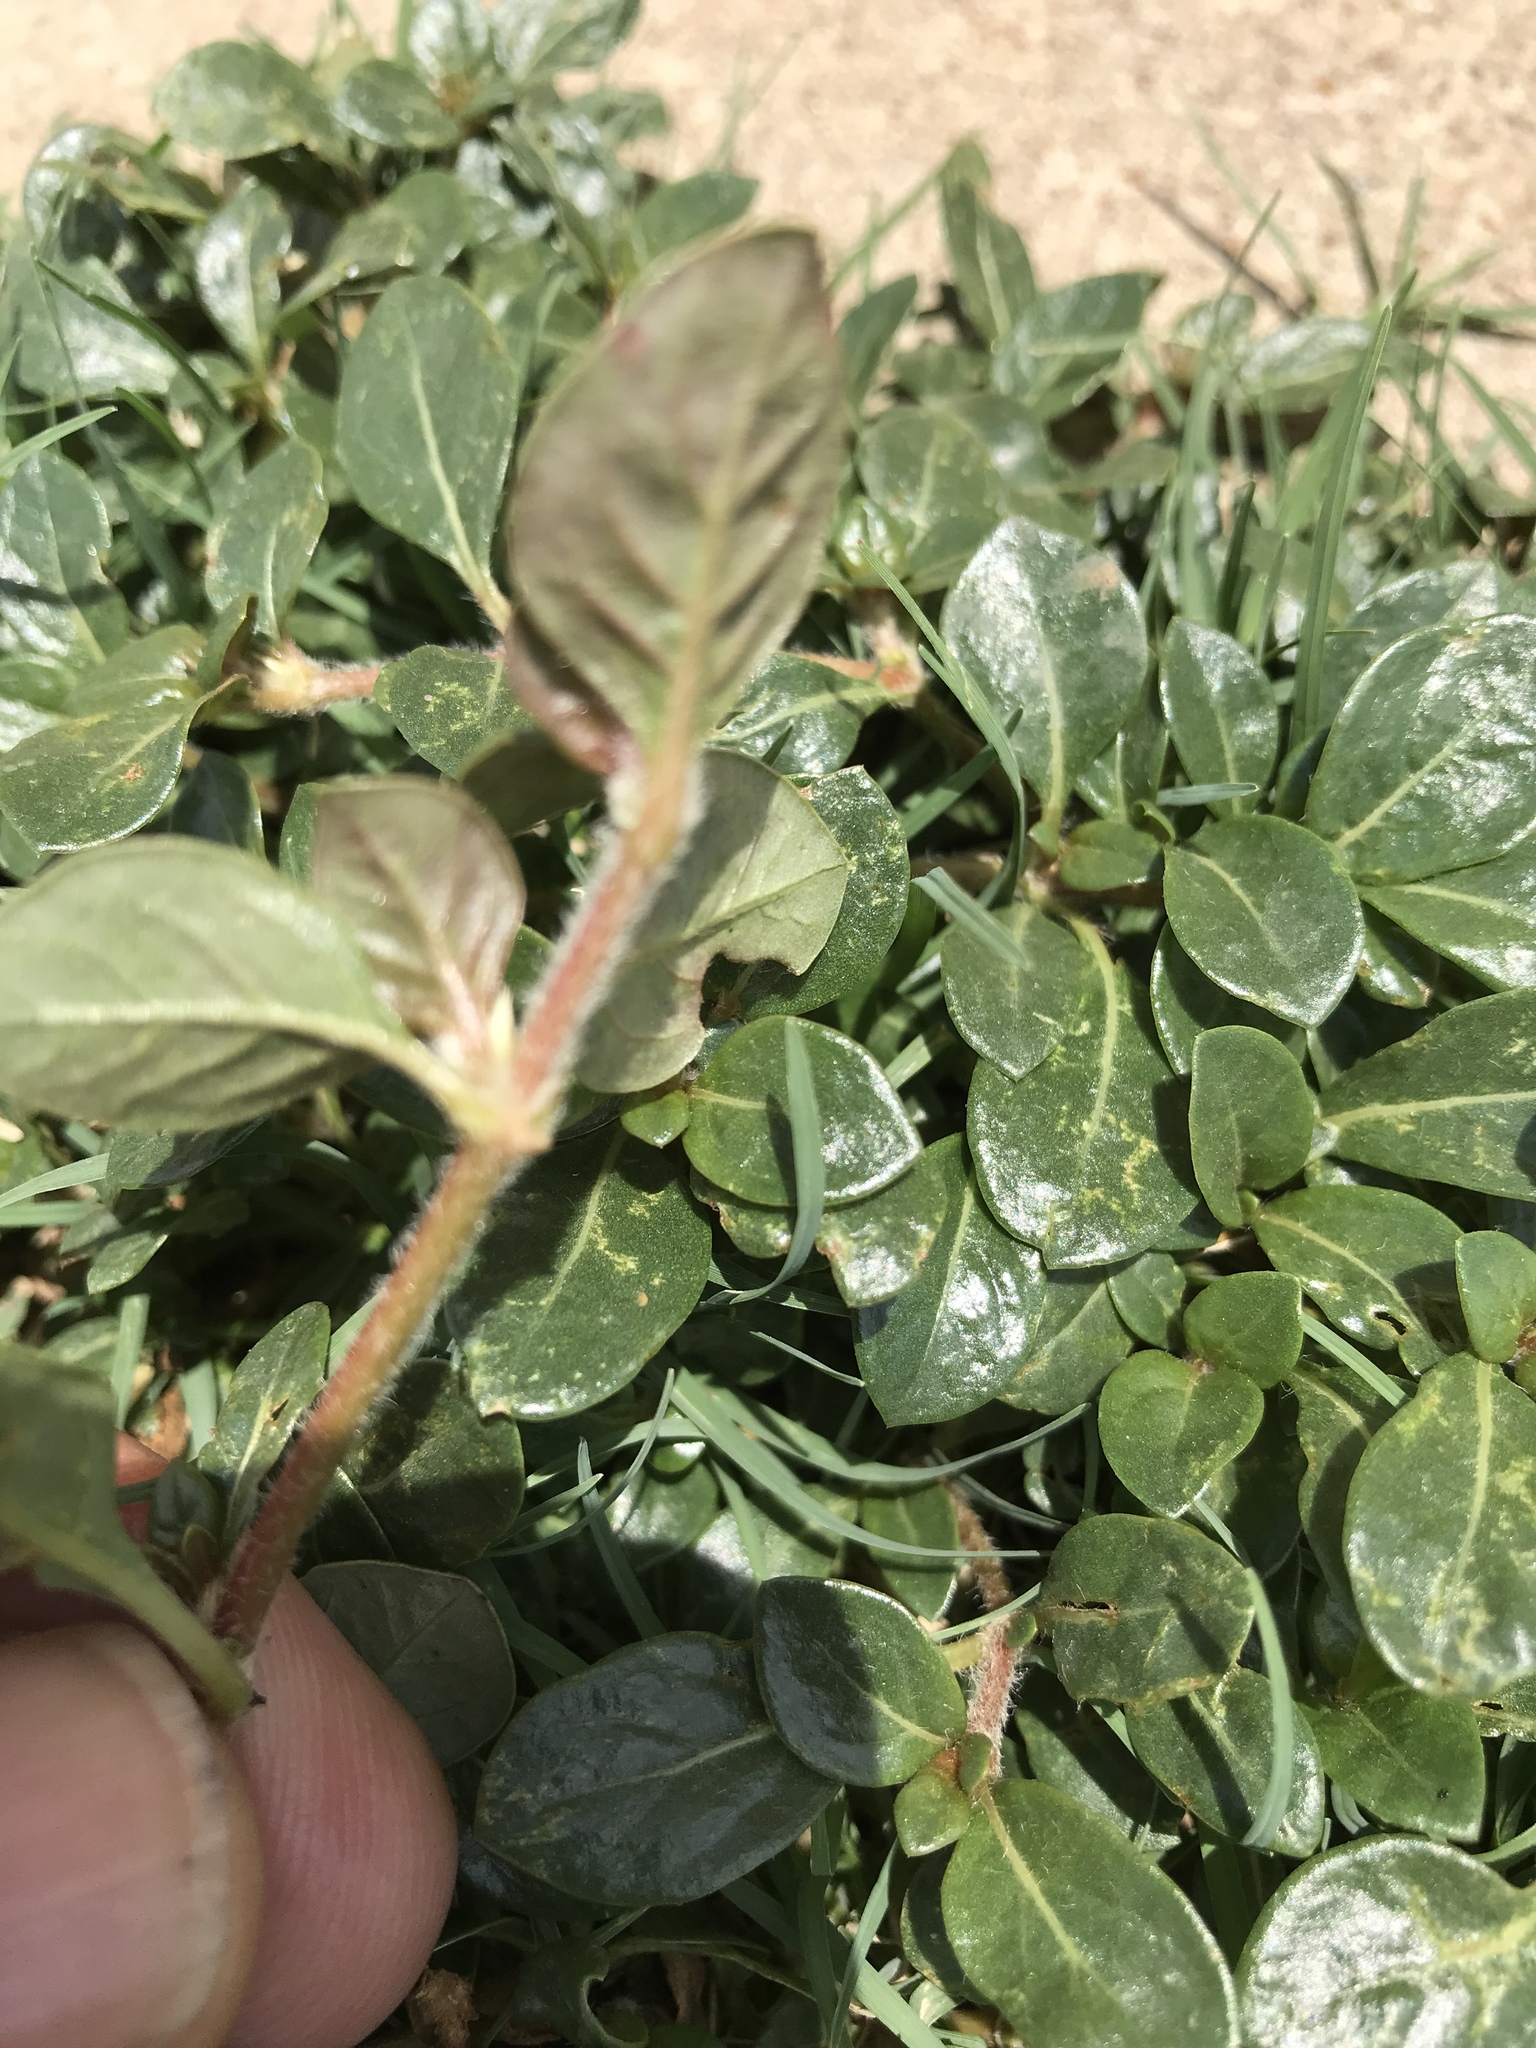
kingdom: Plantae
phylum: Tracheophyta
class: Magnoliopsida
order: Caryophyllales
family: Amaranthaceae
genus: Alternanthera
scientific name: Alternanthera caracasana
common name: Washerwoman
